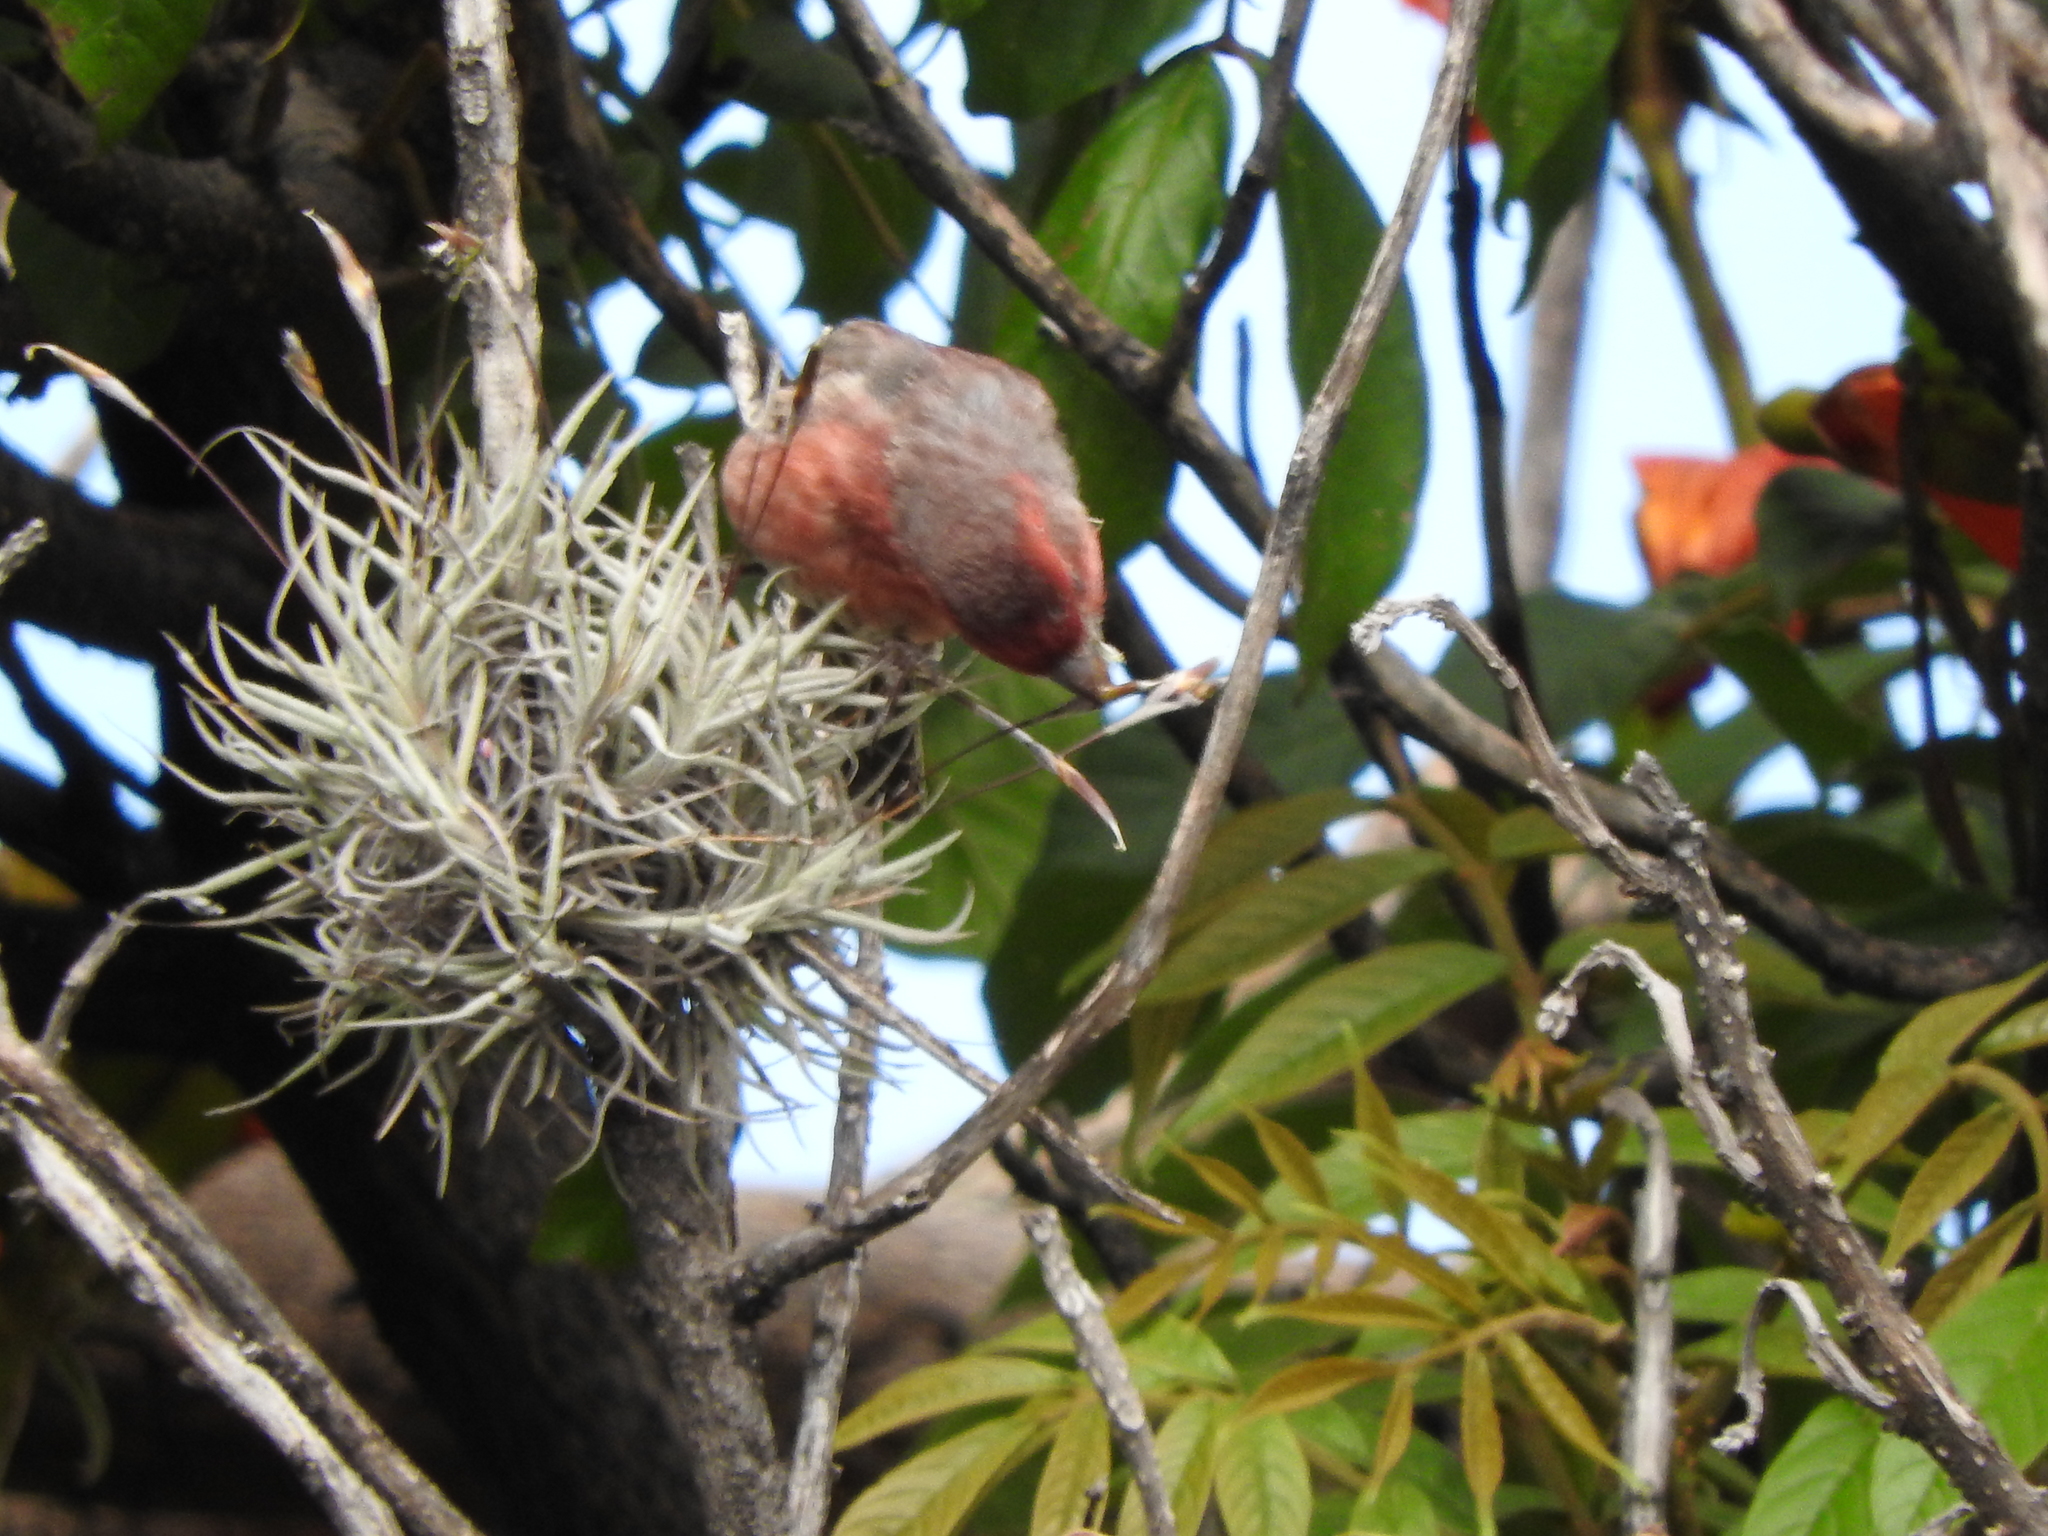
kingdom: Plantae
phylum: Tracheophyta
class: Liliopsida
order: Poales
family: Bromeliaceae
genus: Tillandsia
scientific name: Tillandsia recurvata
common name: Small ballmoss
